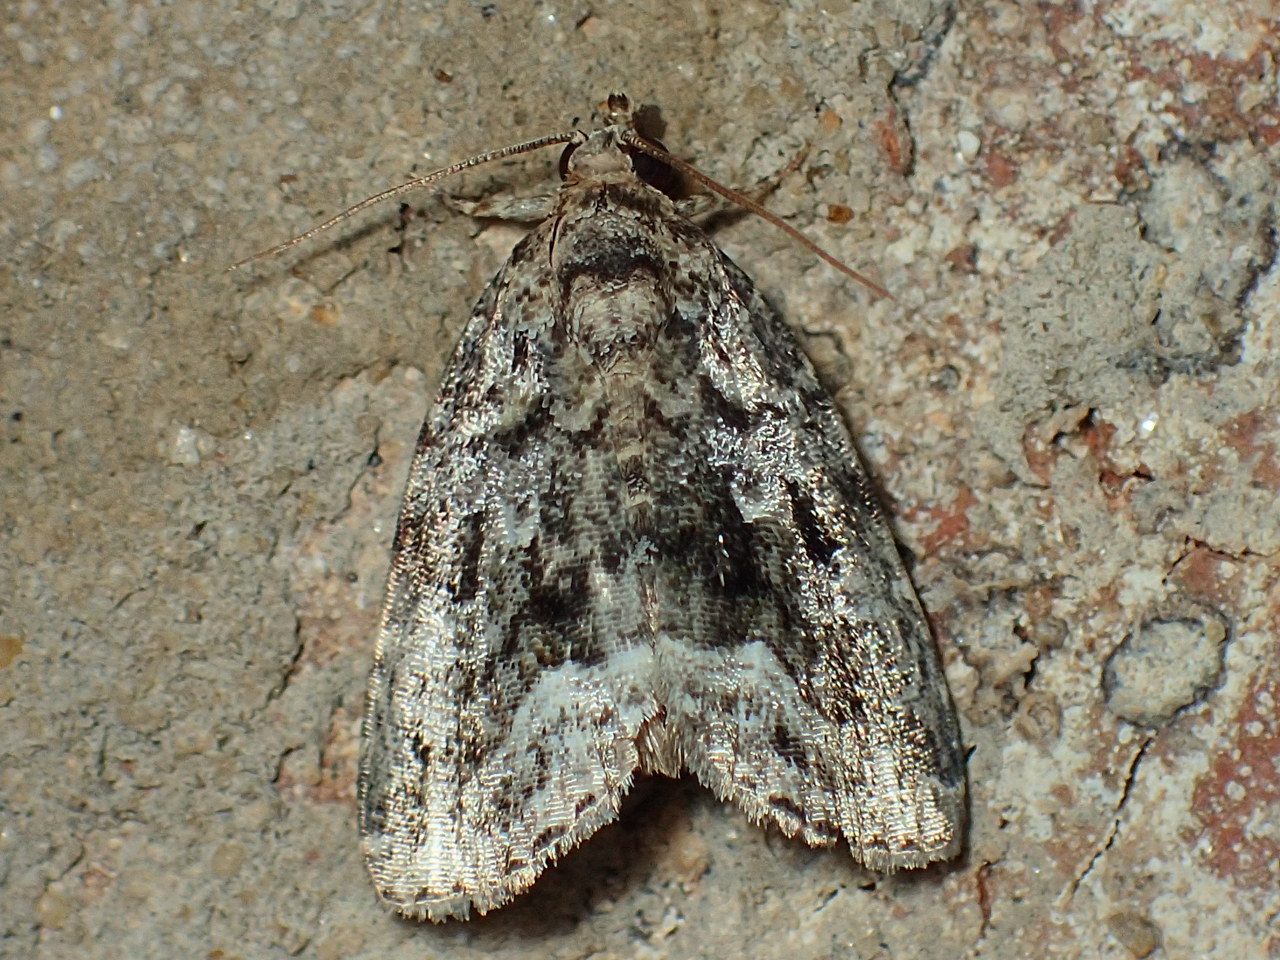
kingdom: Animalia
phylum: Arthropoda
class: Insecta
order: Lepidoptera
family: Noctuidae
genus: Protodeltote
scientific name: Protodeltote muscosula
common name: Large mossy glyph
